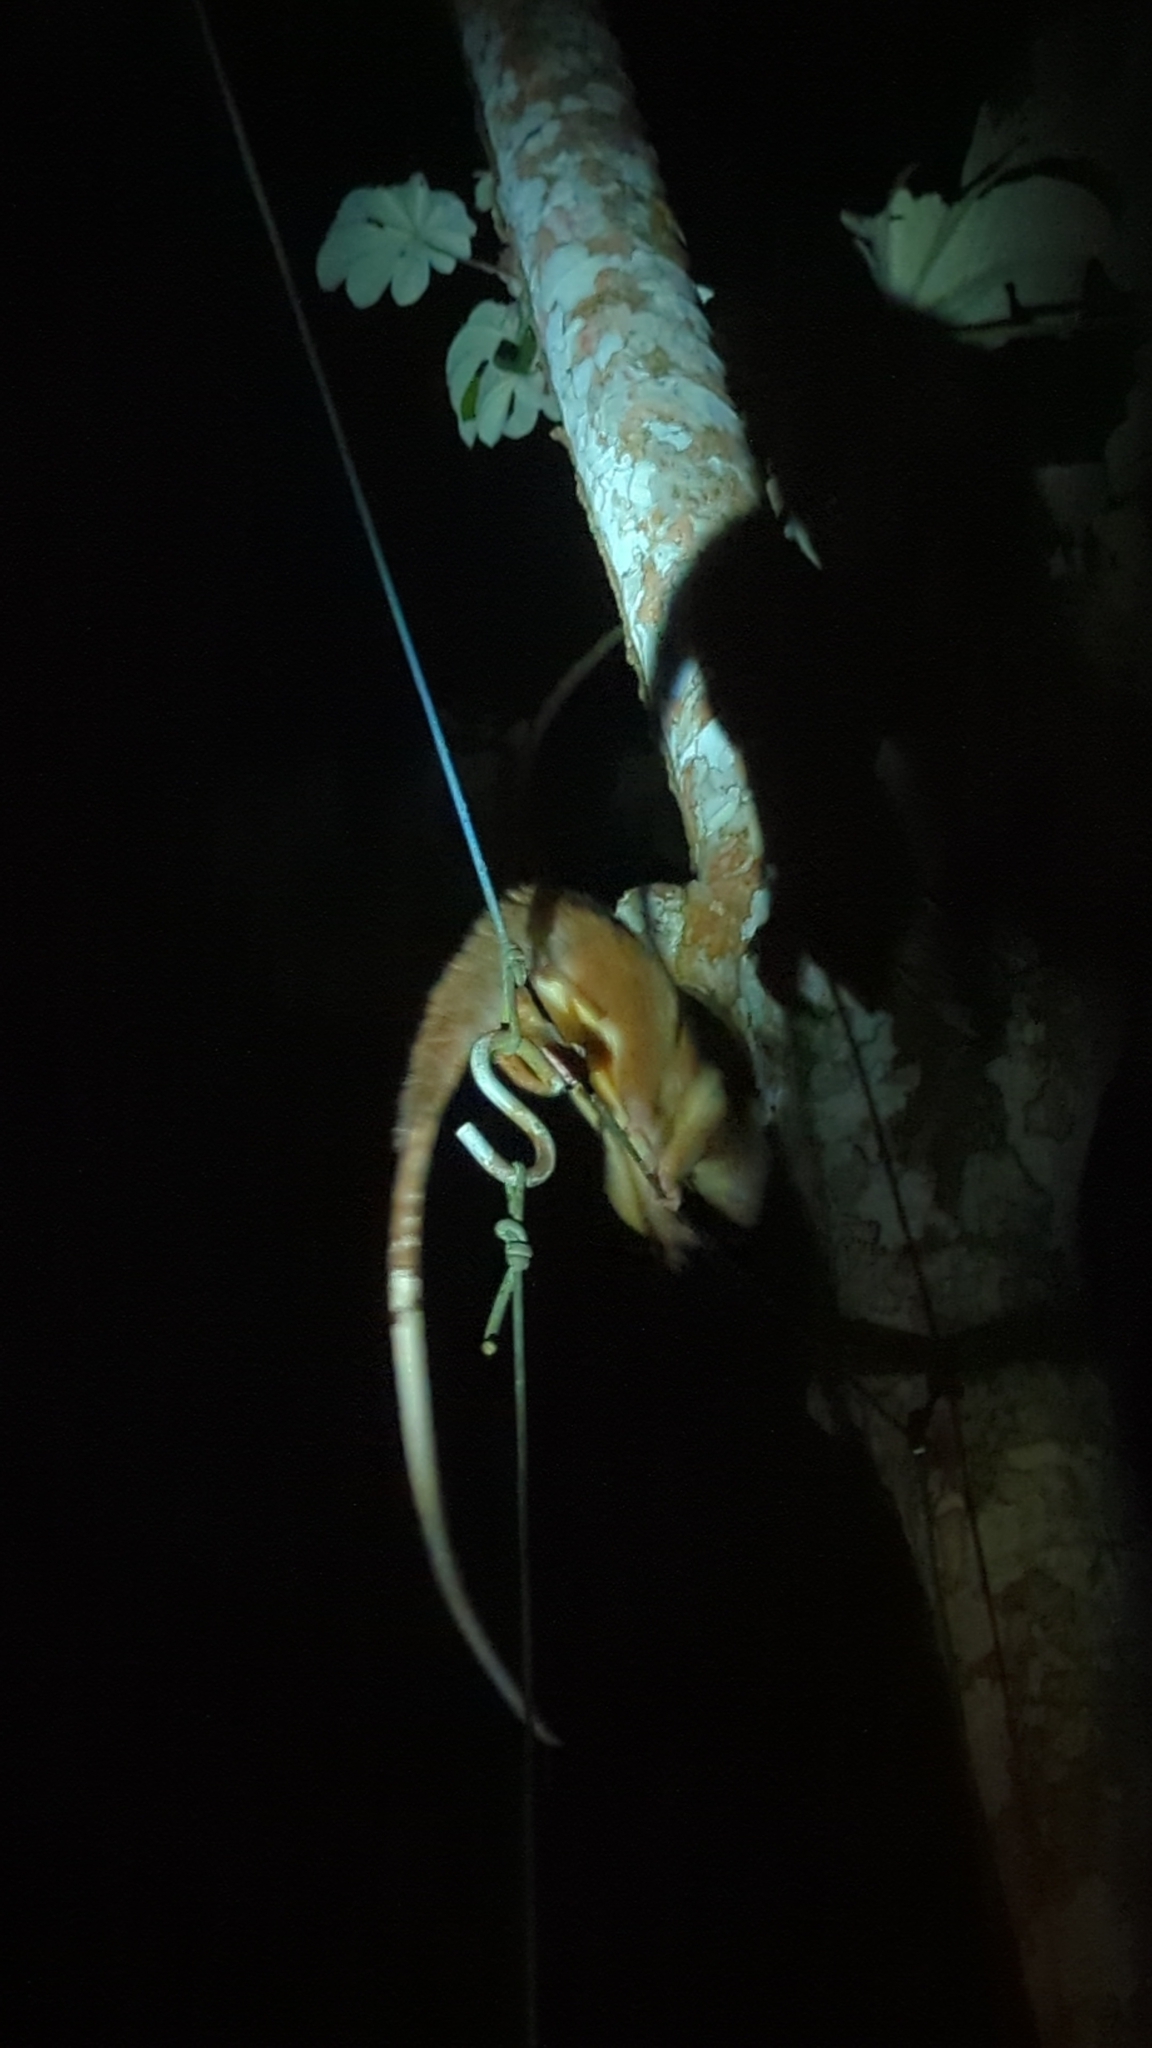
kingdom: Animalia
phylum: Chordata
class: Mammalia
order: Didelphimorphia
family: Didelphidae
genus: Caluromys
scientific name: Caluromys derbianus
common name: Derby's woolly opossum
